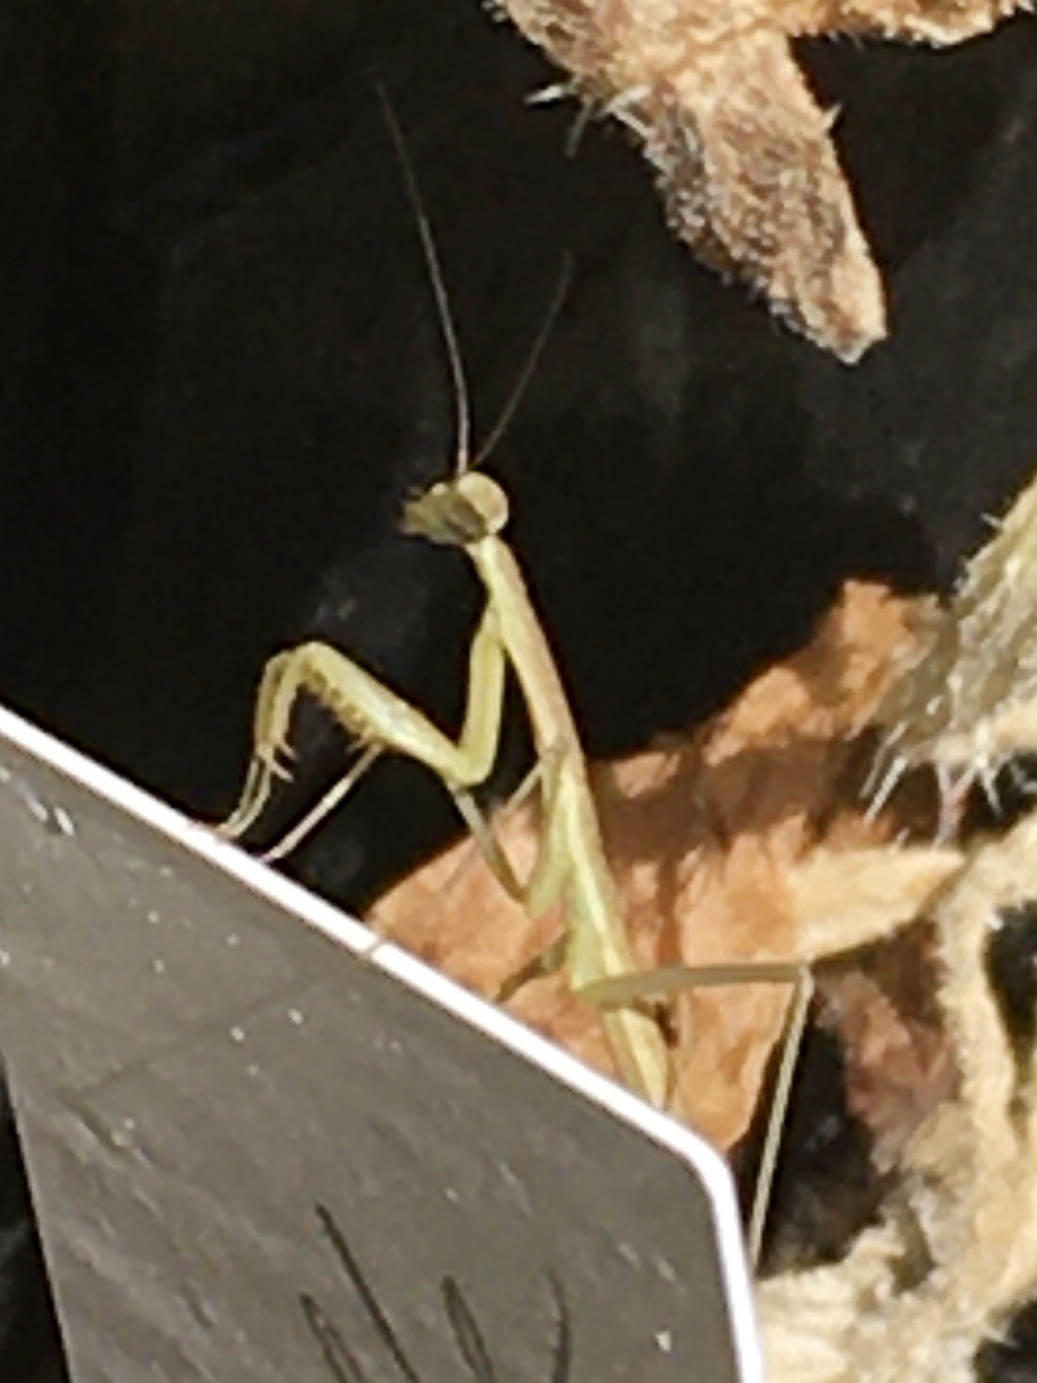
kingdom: Animalia
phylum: Arthropoda
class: Insecta
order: Mantodea
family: Mantidae
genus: Tenodera
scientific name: Tenodera sinensis
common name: Chinese mantis
